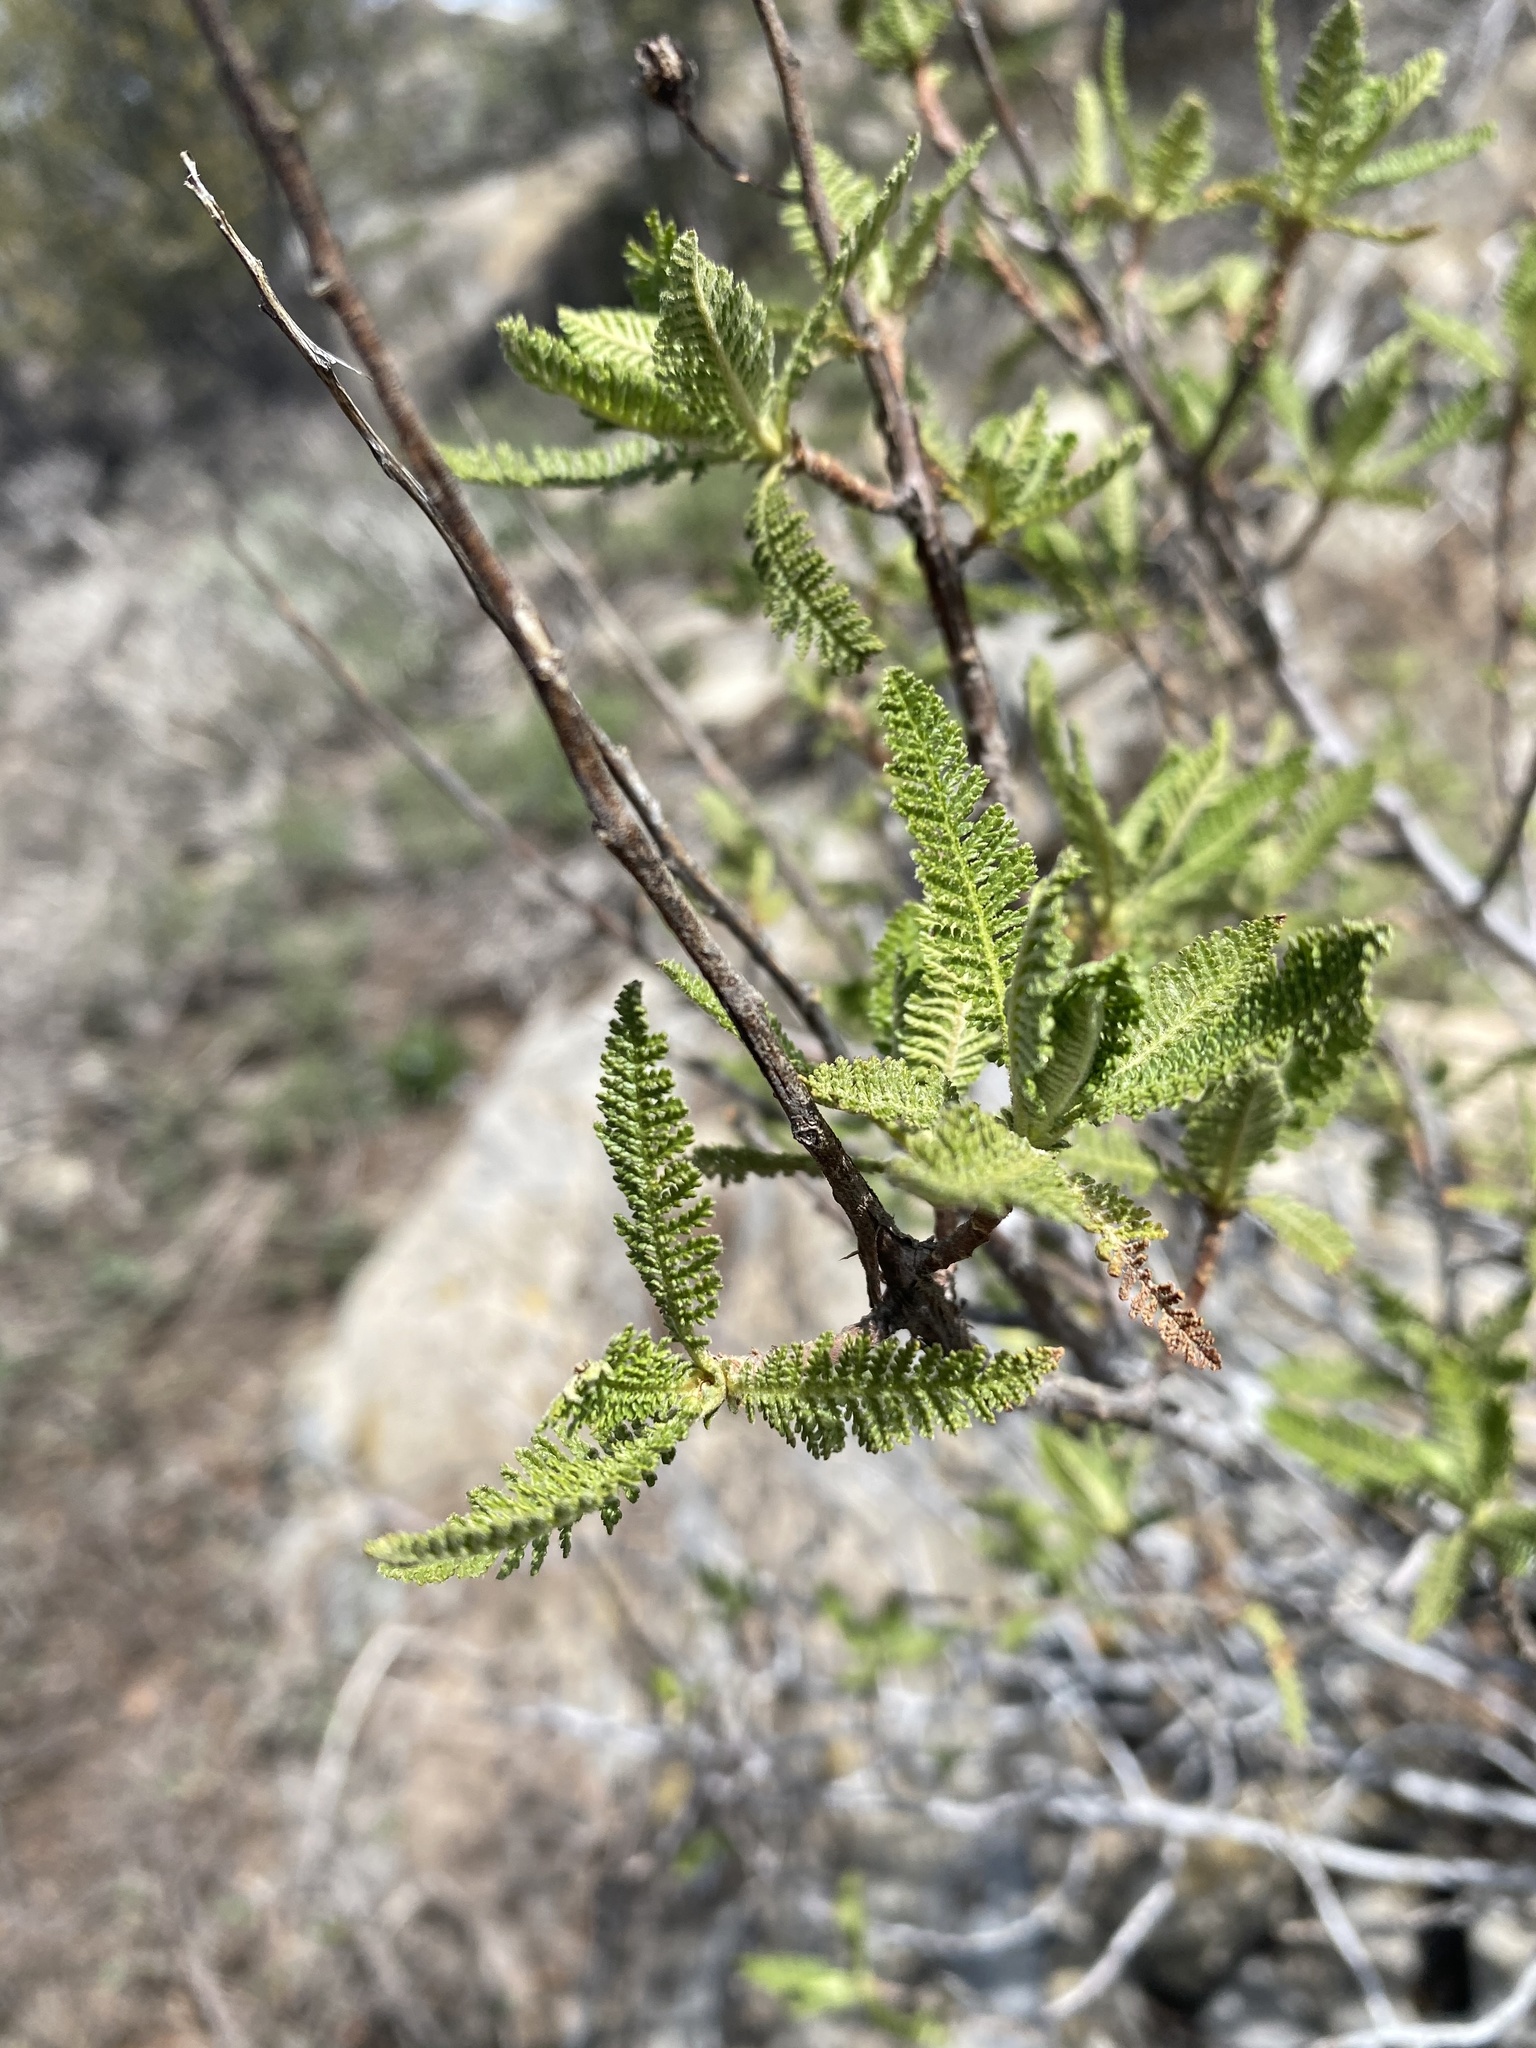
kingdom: Plantae
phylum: Tracheophyta
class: Magnoliopsida
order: Rosales
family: Rosaceae
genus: Chamaebatiaria
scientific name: Chamaebatiaria millefolium
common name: Fernbush
